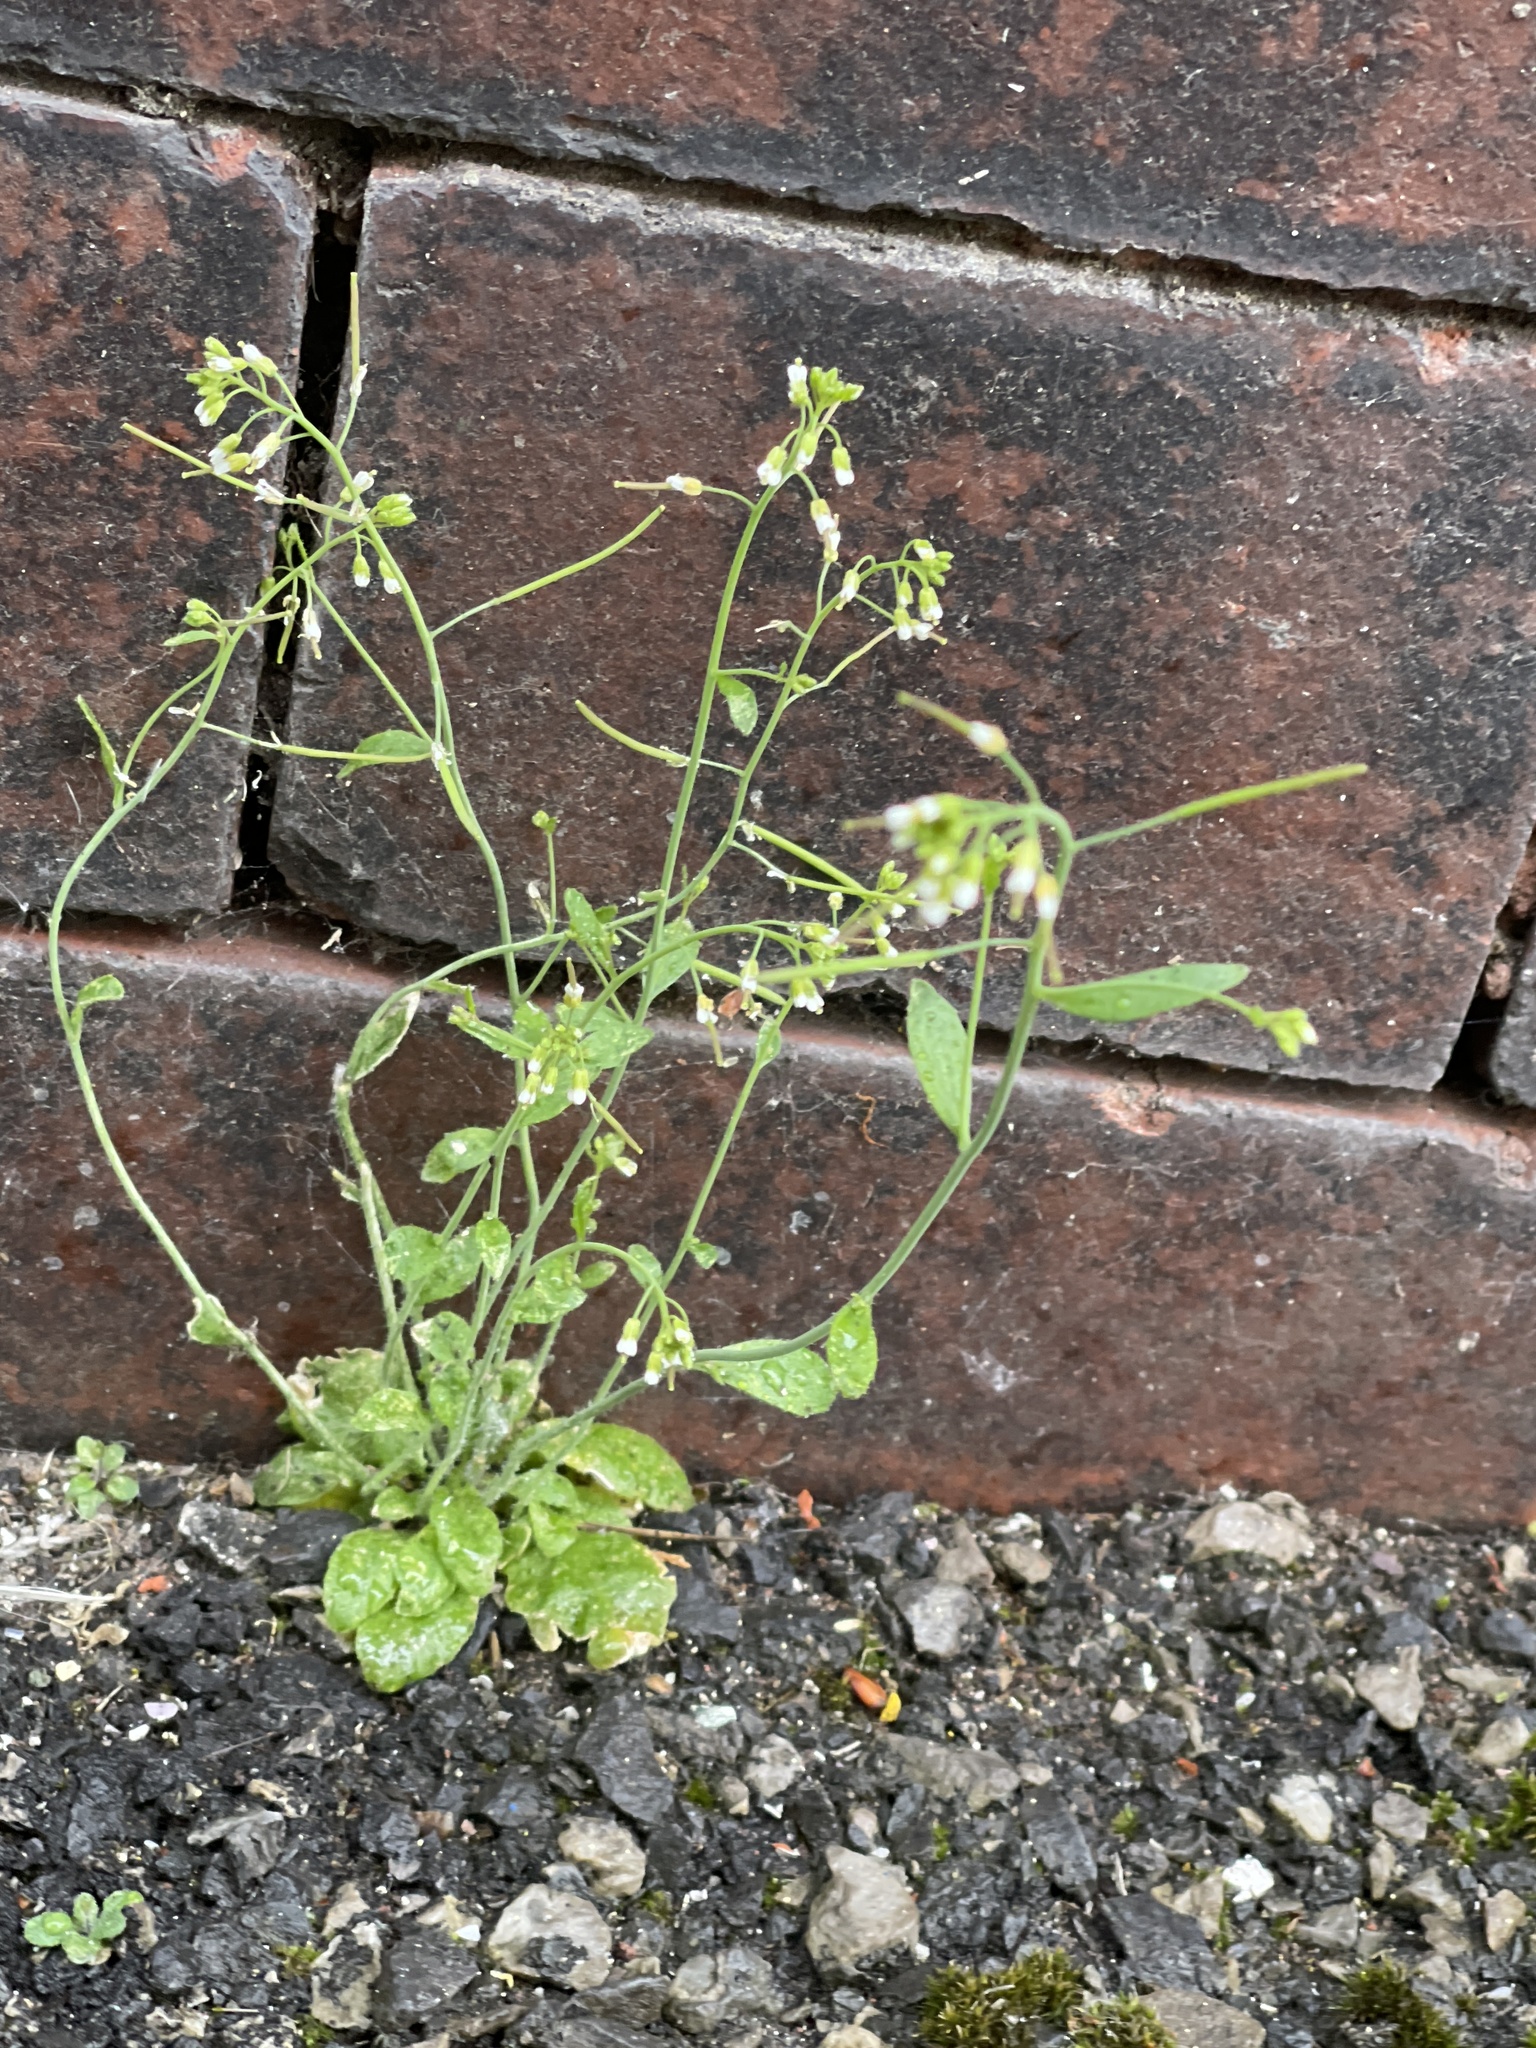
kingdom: Plantae
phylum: Tracheophyta
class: Magnoliopsida
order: Brassicales
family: Brassicaceae
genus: Arabidopsis
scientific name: Arabidopsis thaliana
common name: Thale cress
